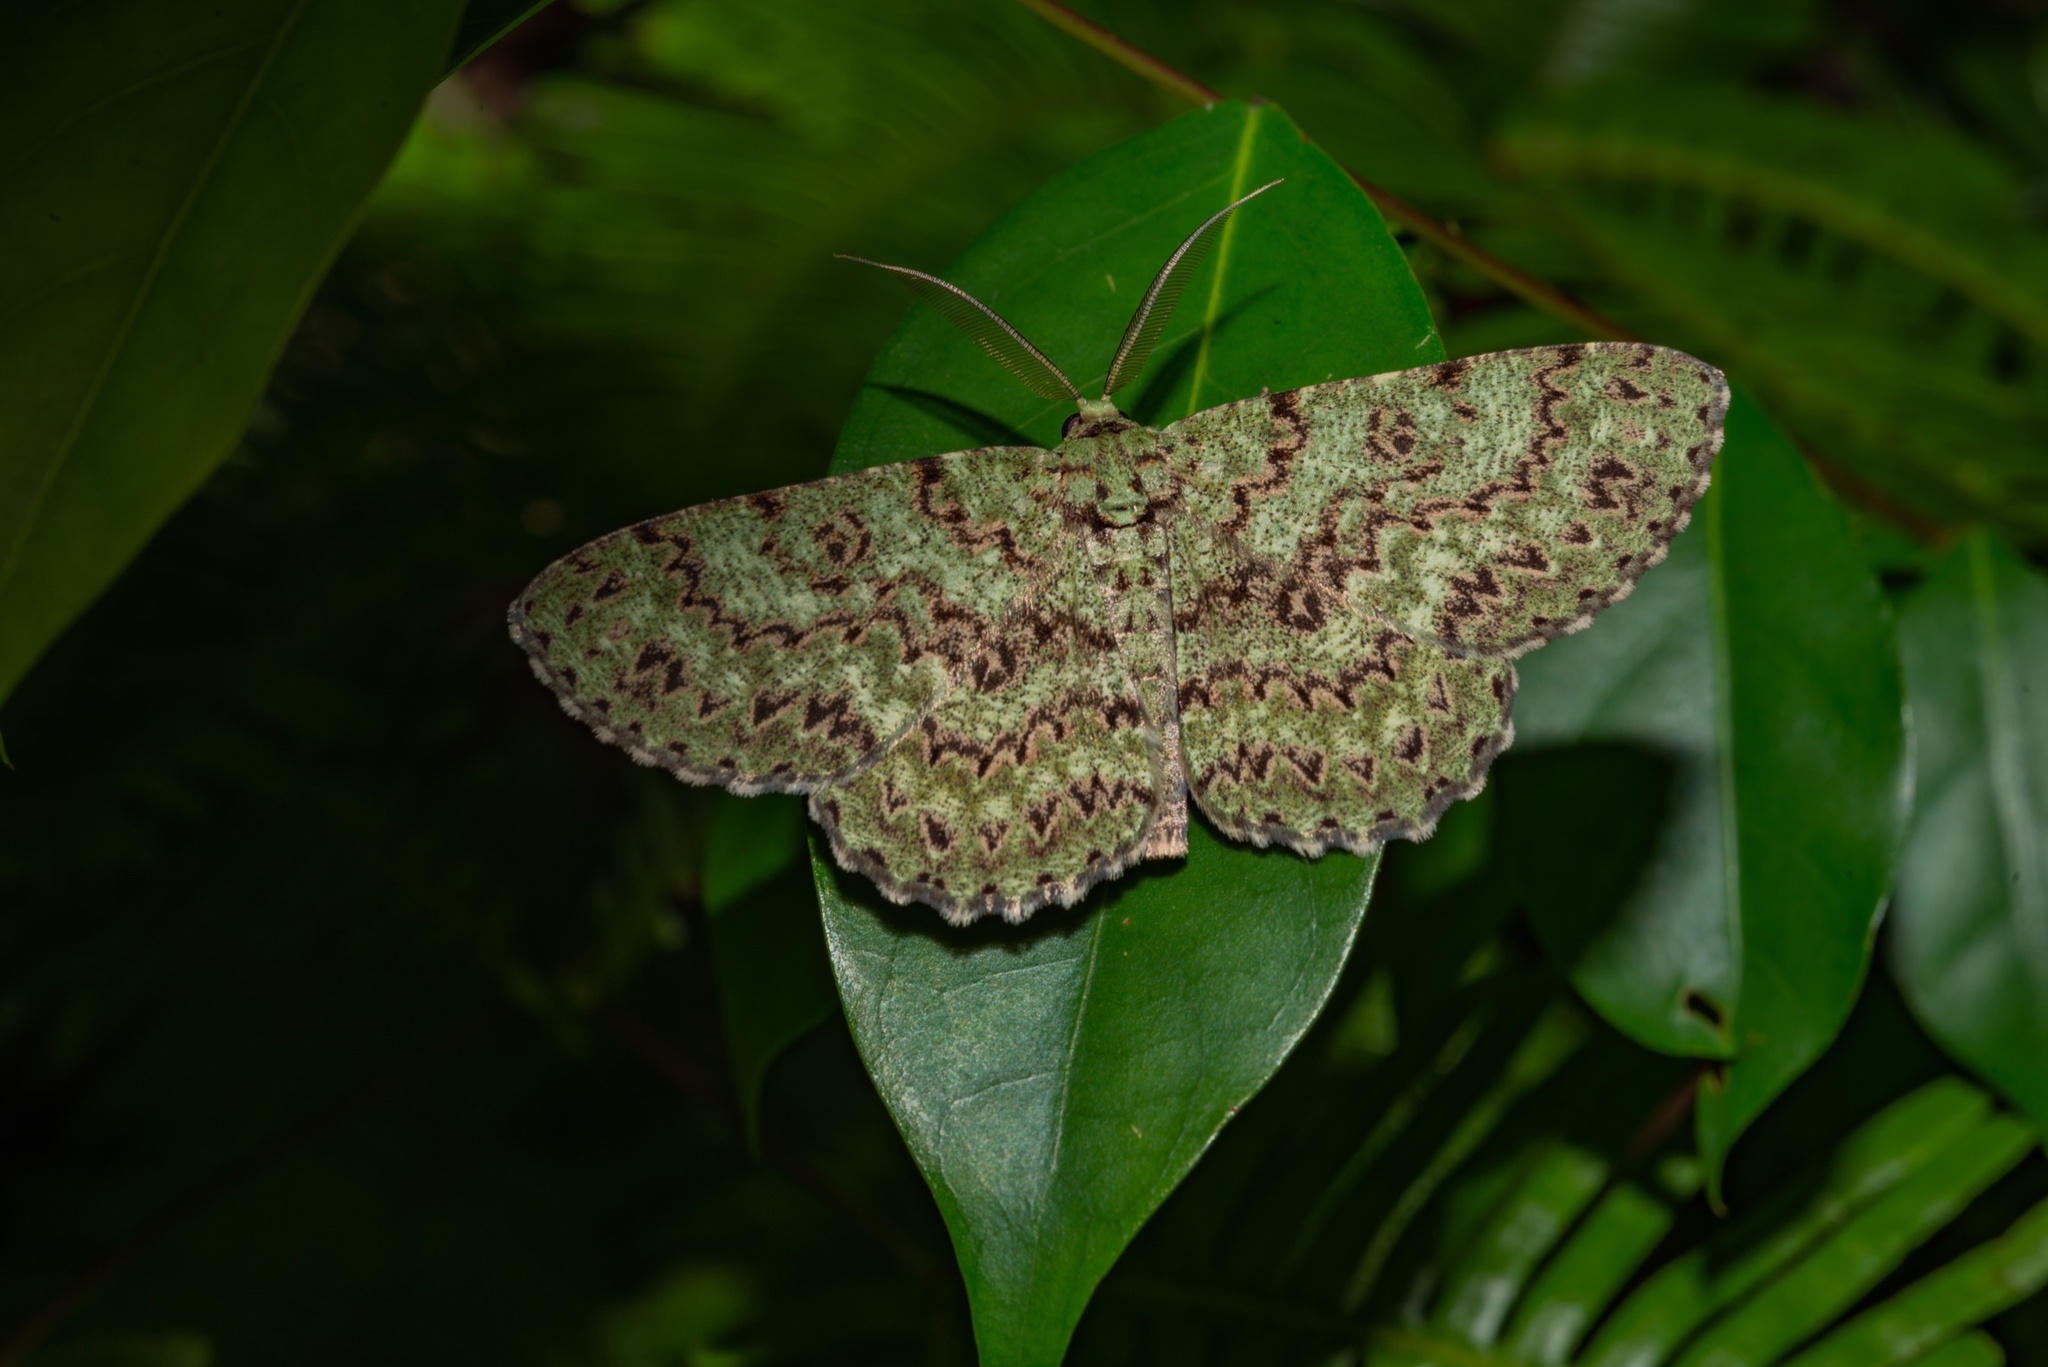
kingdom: Animalia
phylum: Arthropoda
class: Insecta
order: Lepidoptera
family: Geometridae
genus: Ophthalmitis
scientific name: Ophthalmitis herbidaria
